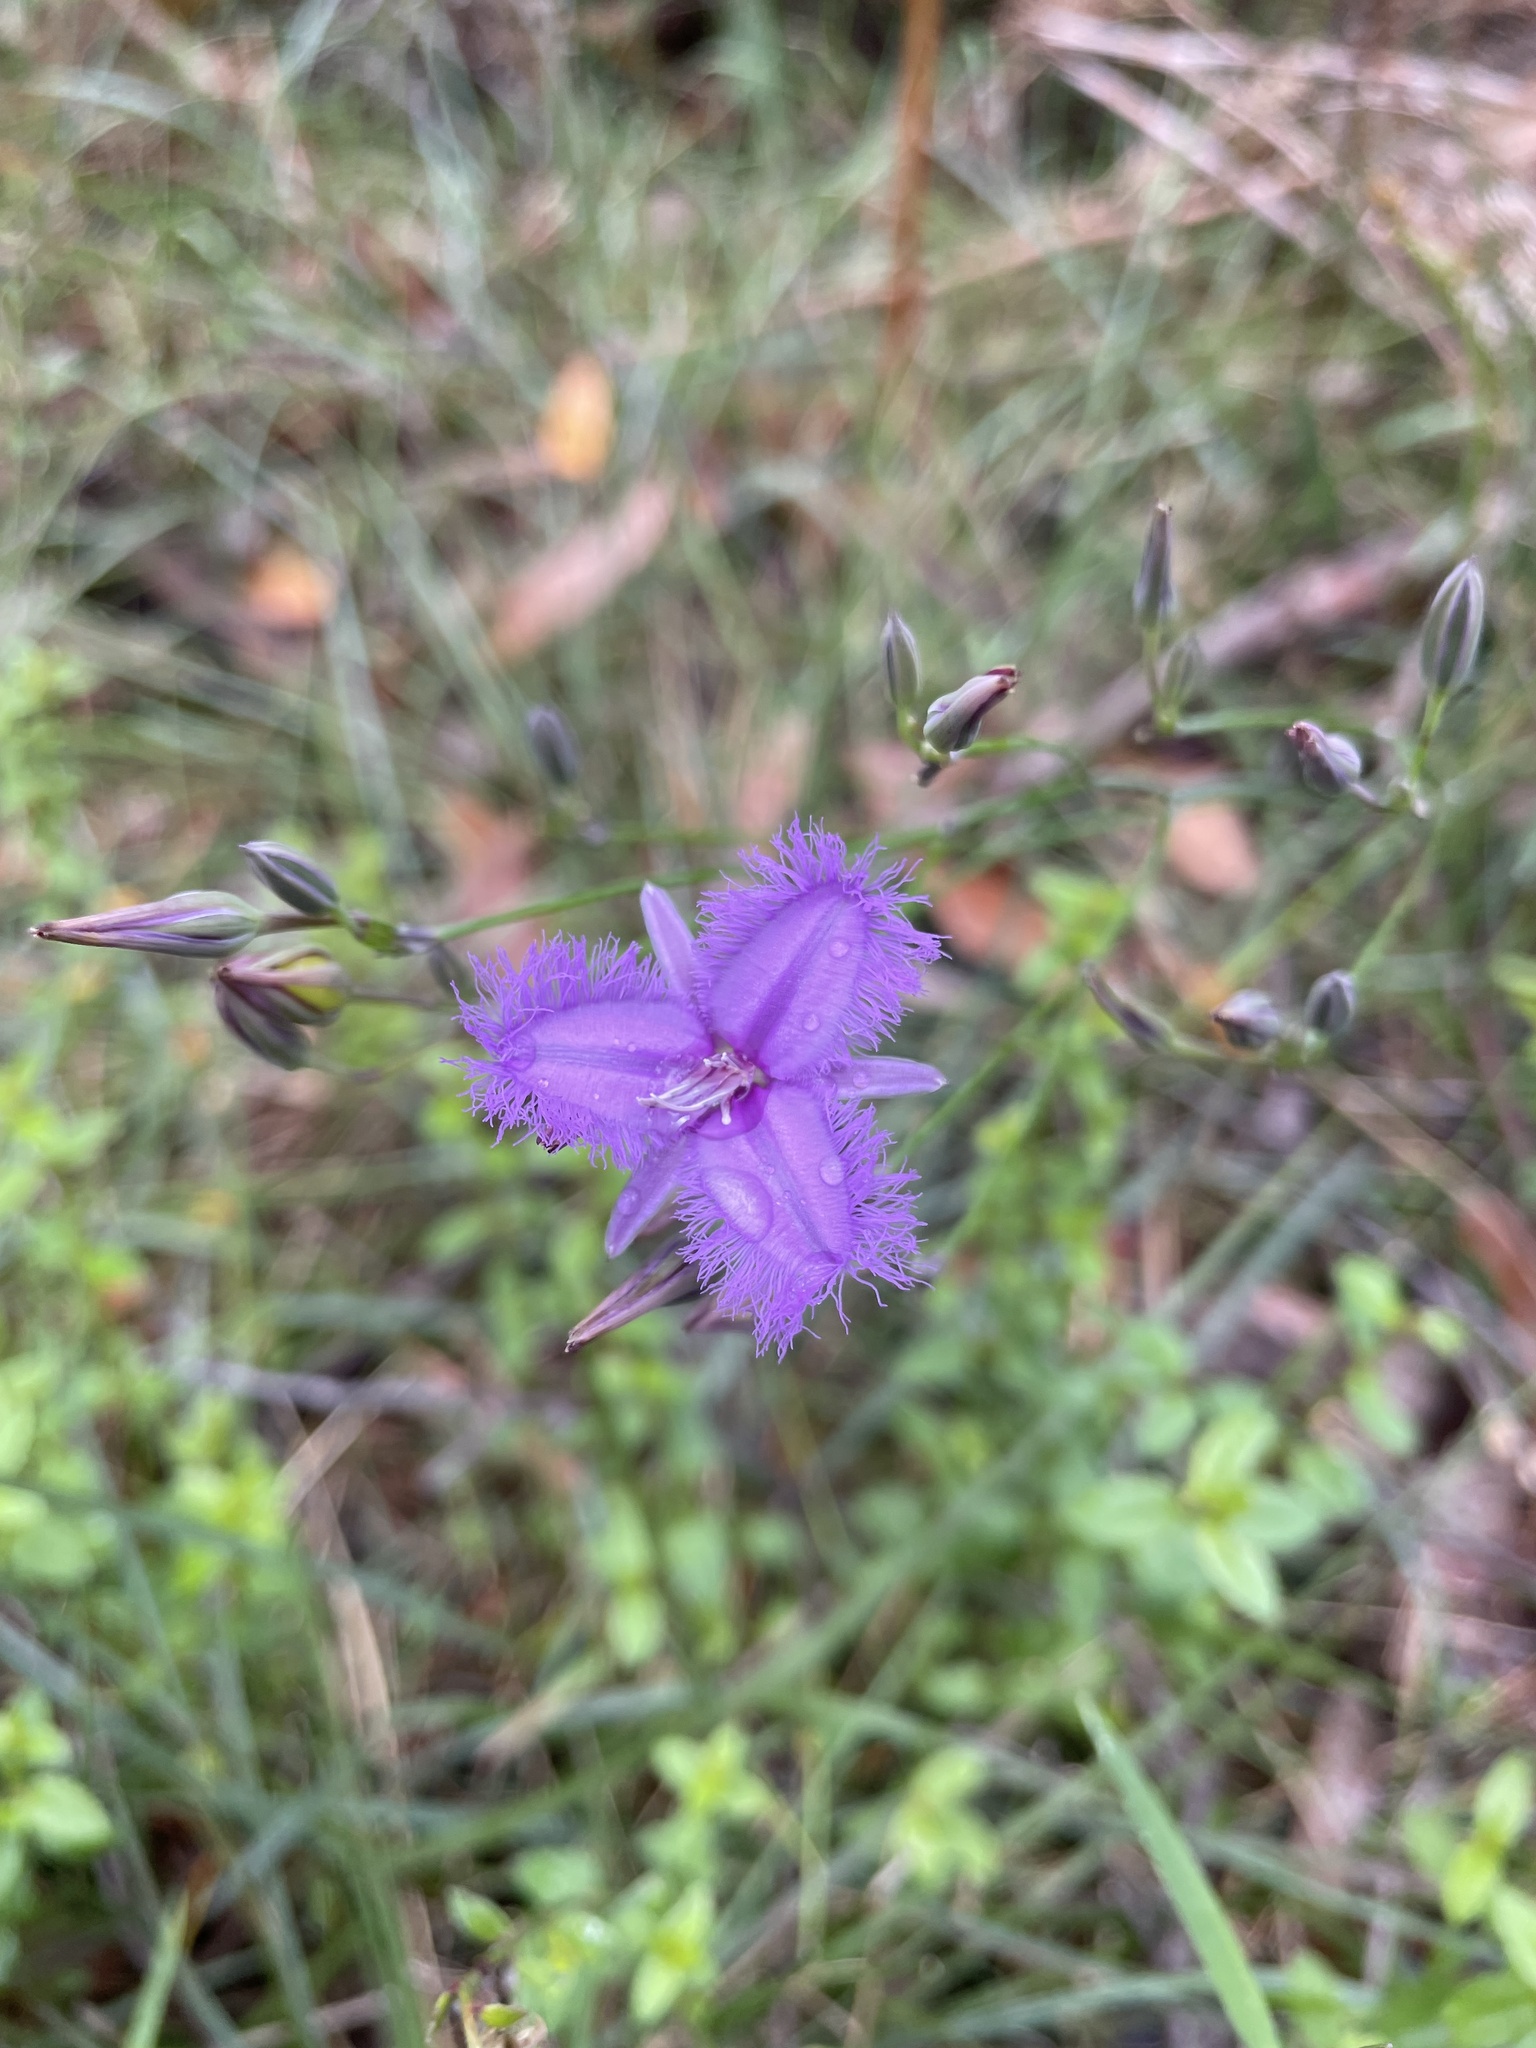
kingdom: Plantae
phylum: Tracheophyta
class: Liliopsida
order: Asparagales
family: Asparagaceae
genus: Thysanotus
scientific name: Thysanotus tuberosus
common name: Common fringed-lily
